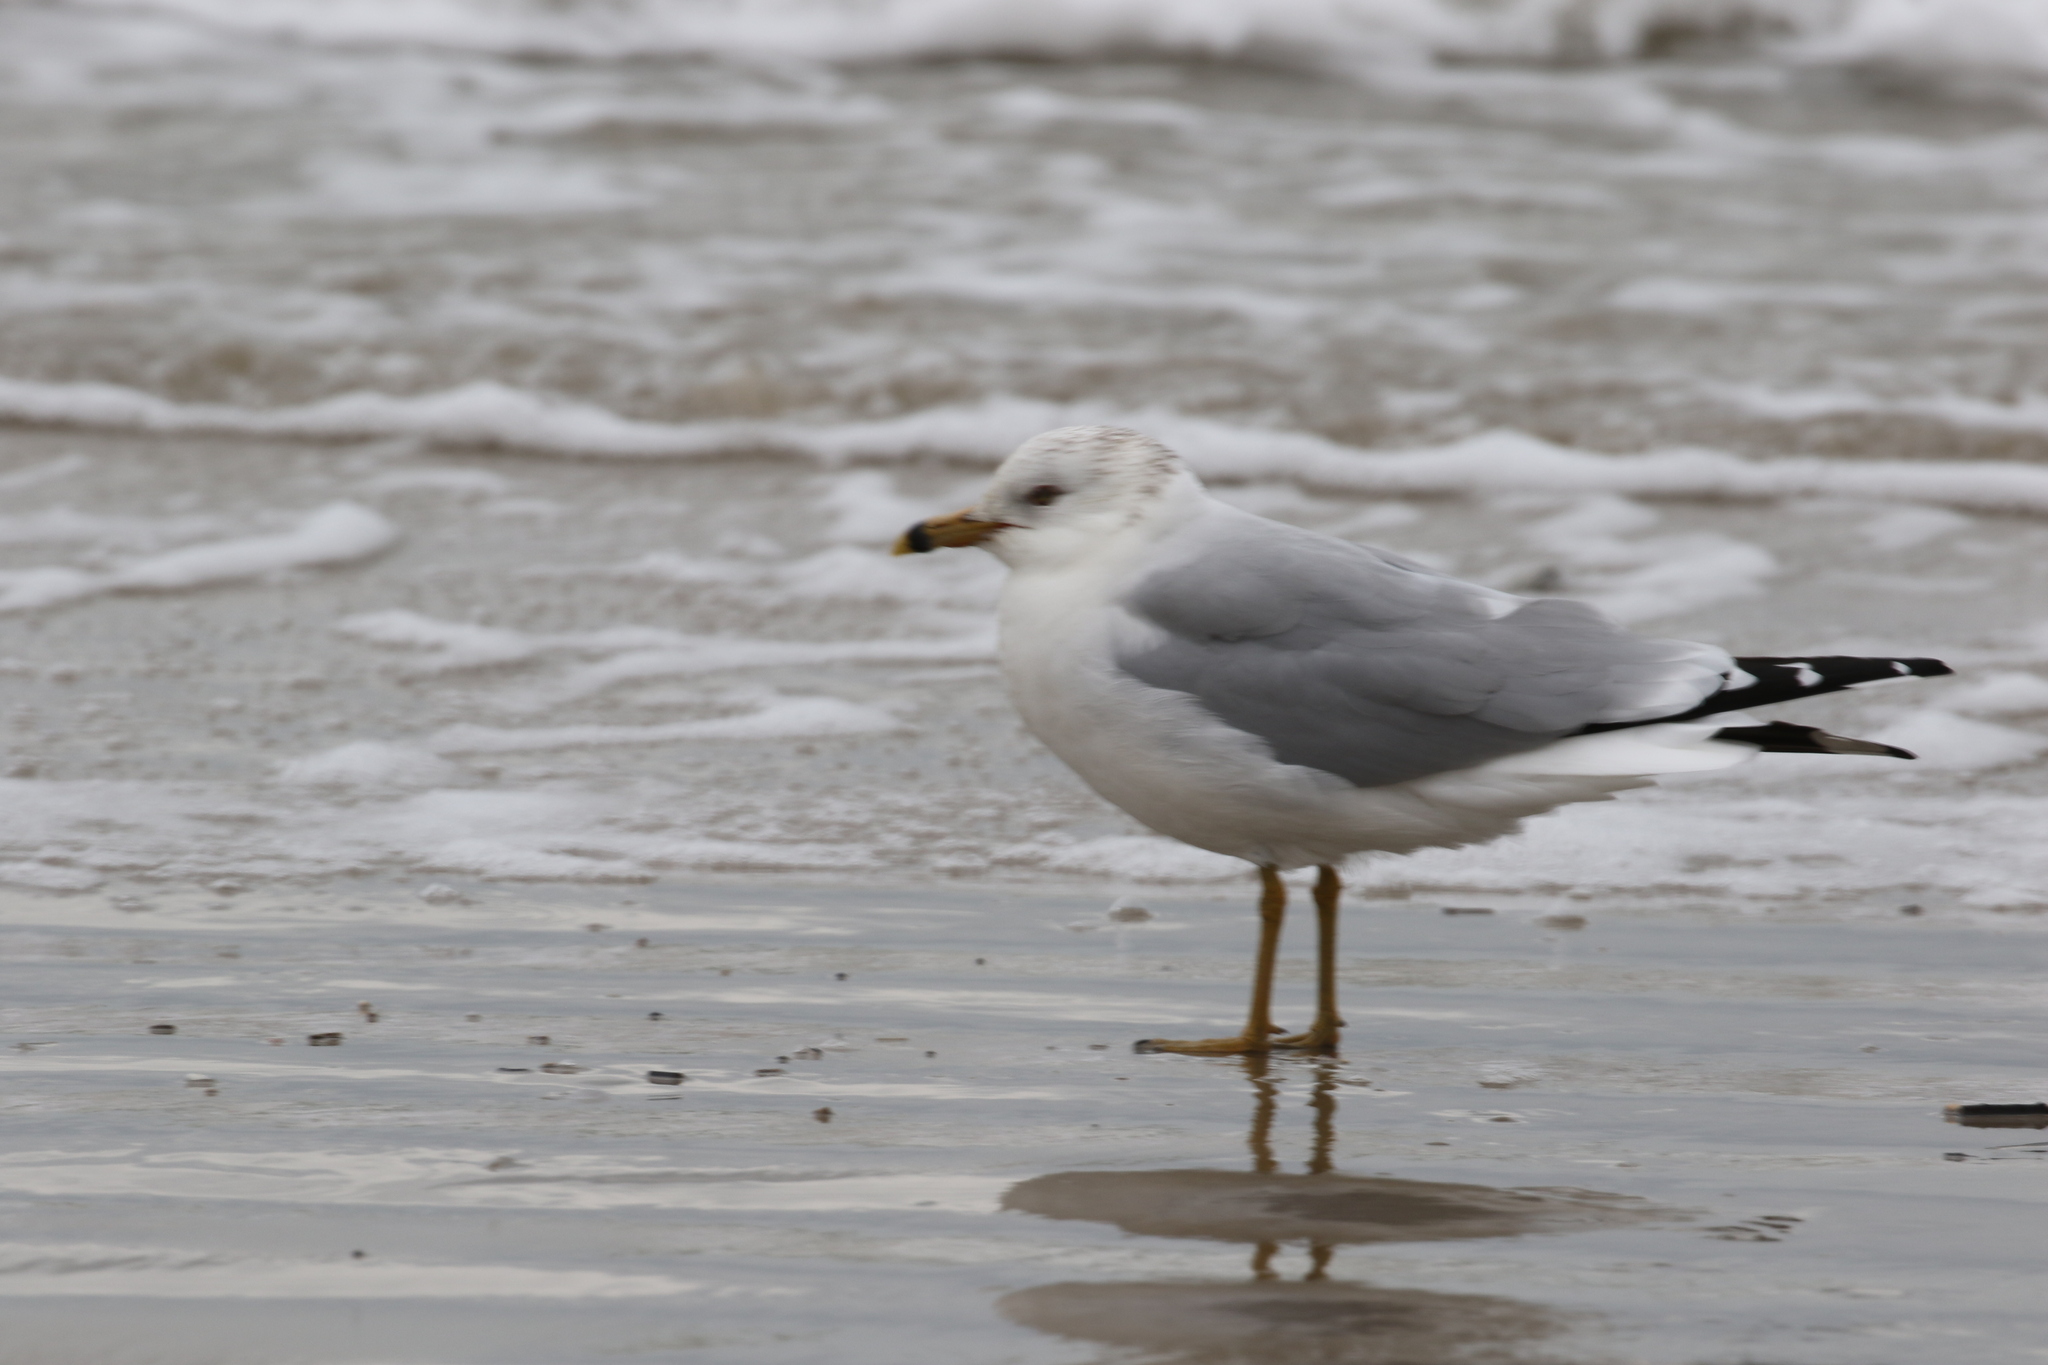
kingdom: Animalia
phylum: Chordata
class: Aves
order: Charadriiformes
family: Laridae
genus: Larus
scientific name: Larus delawarensis
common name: Ring-billed gull
